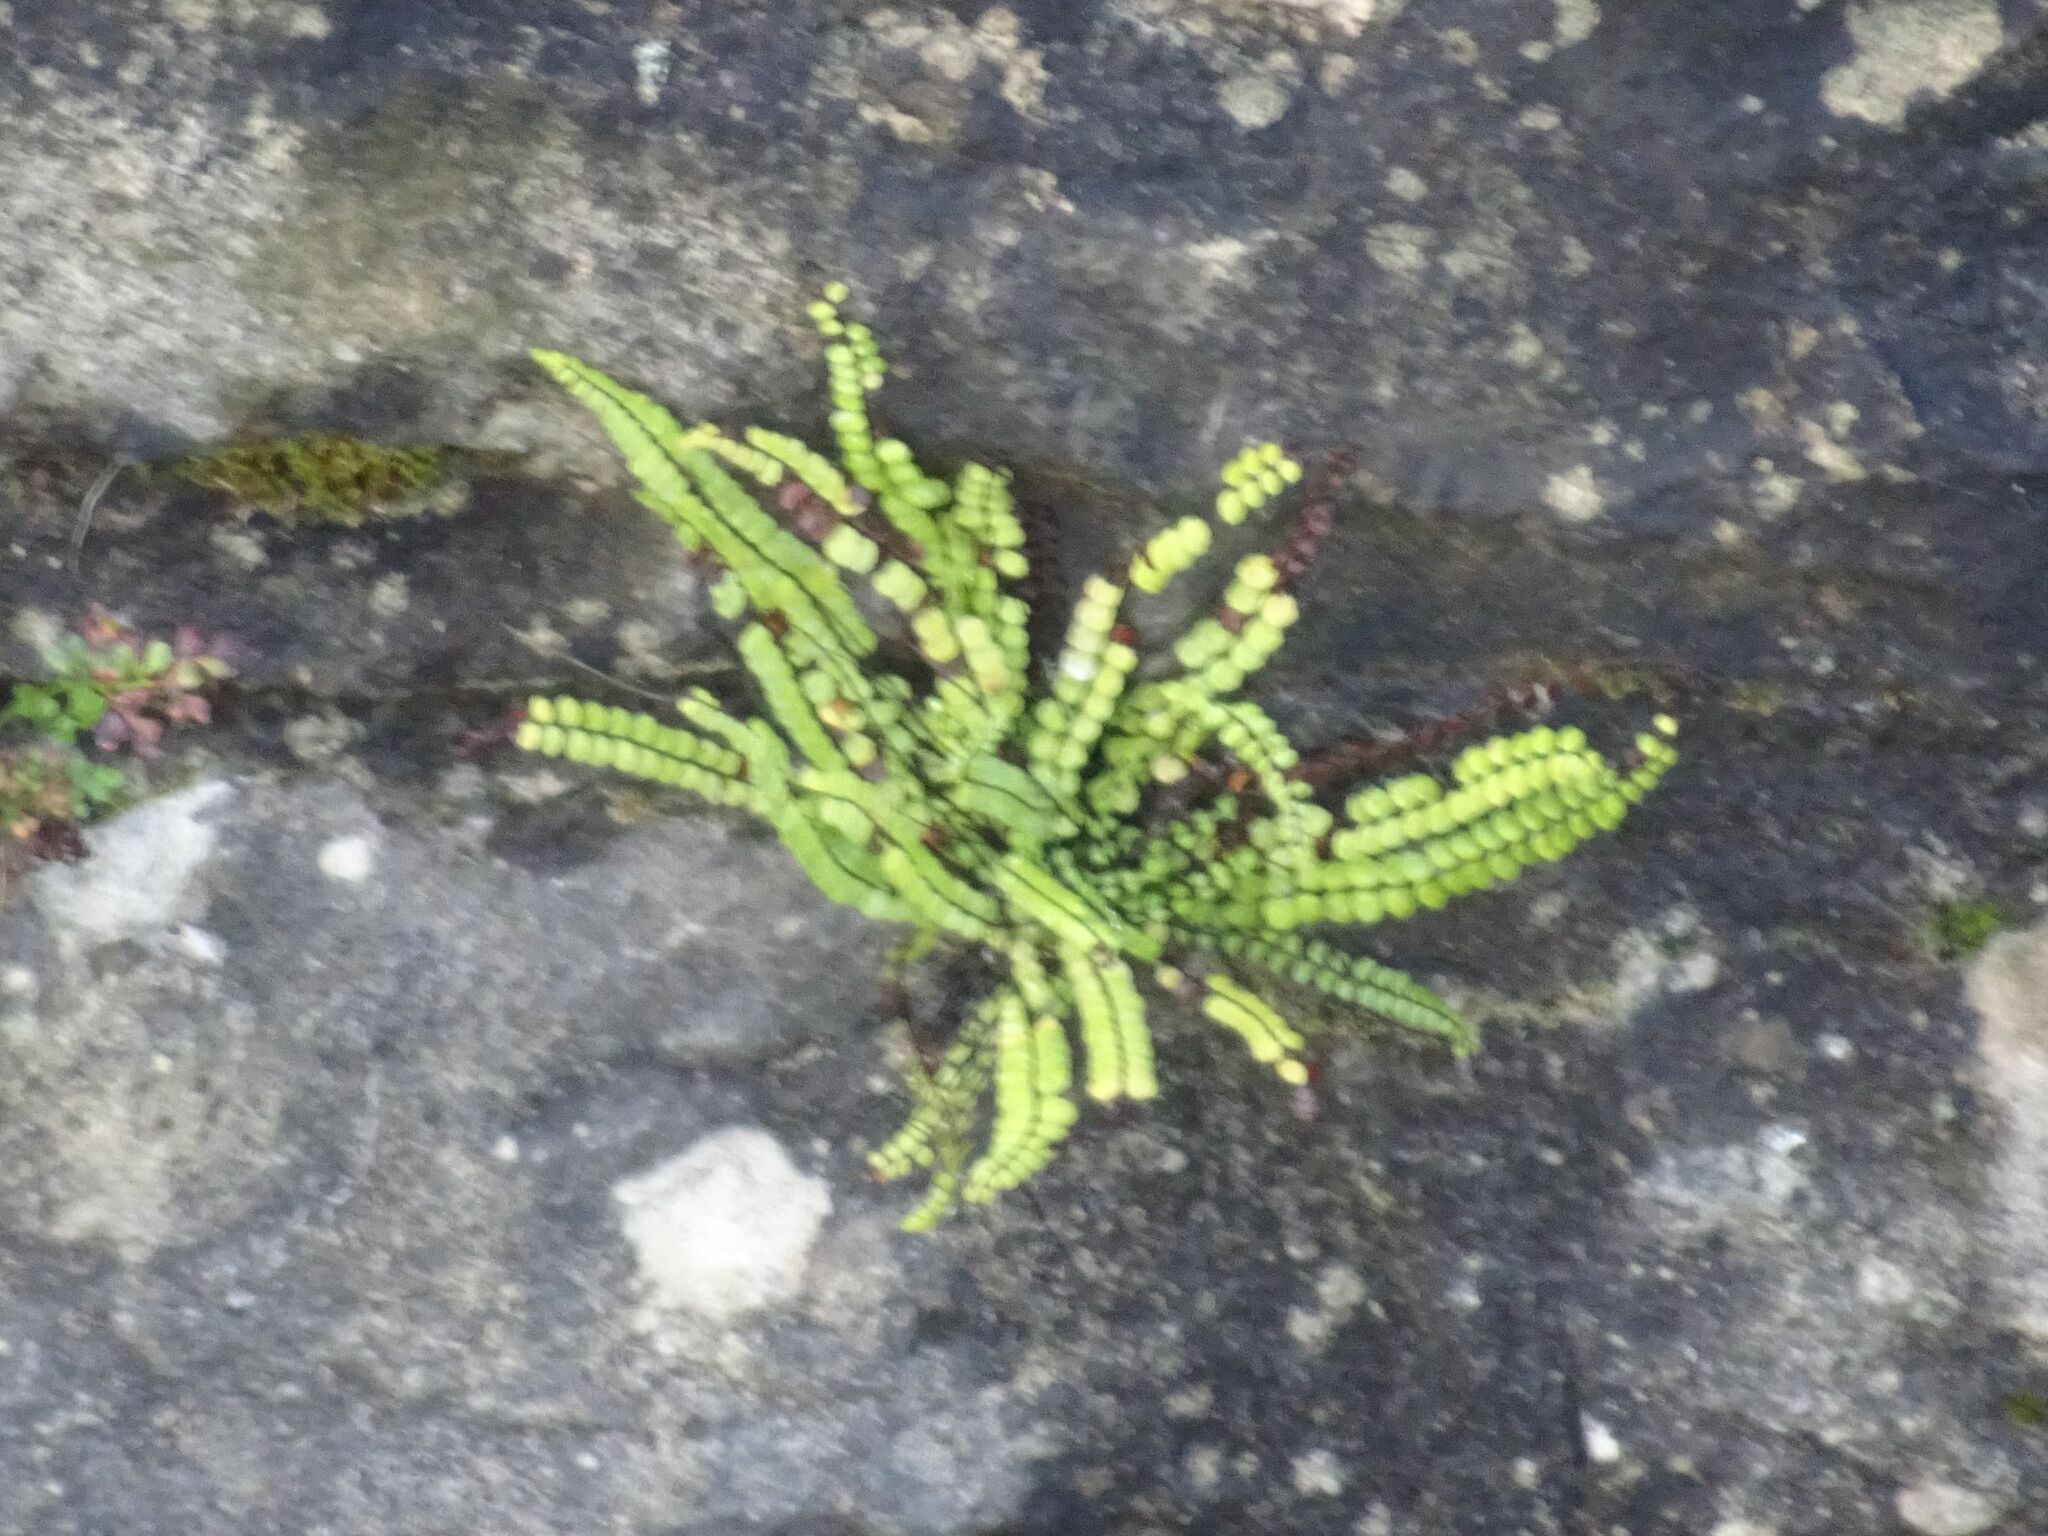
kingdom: Plantae
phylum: Tracheophyta
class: Polypodiopsida
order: Polypodiales
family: Aspleniaceae
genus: Asplenium
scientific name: Asplenium trichomanes
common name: Maidenhair spleenwort
